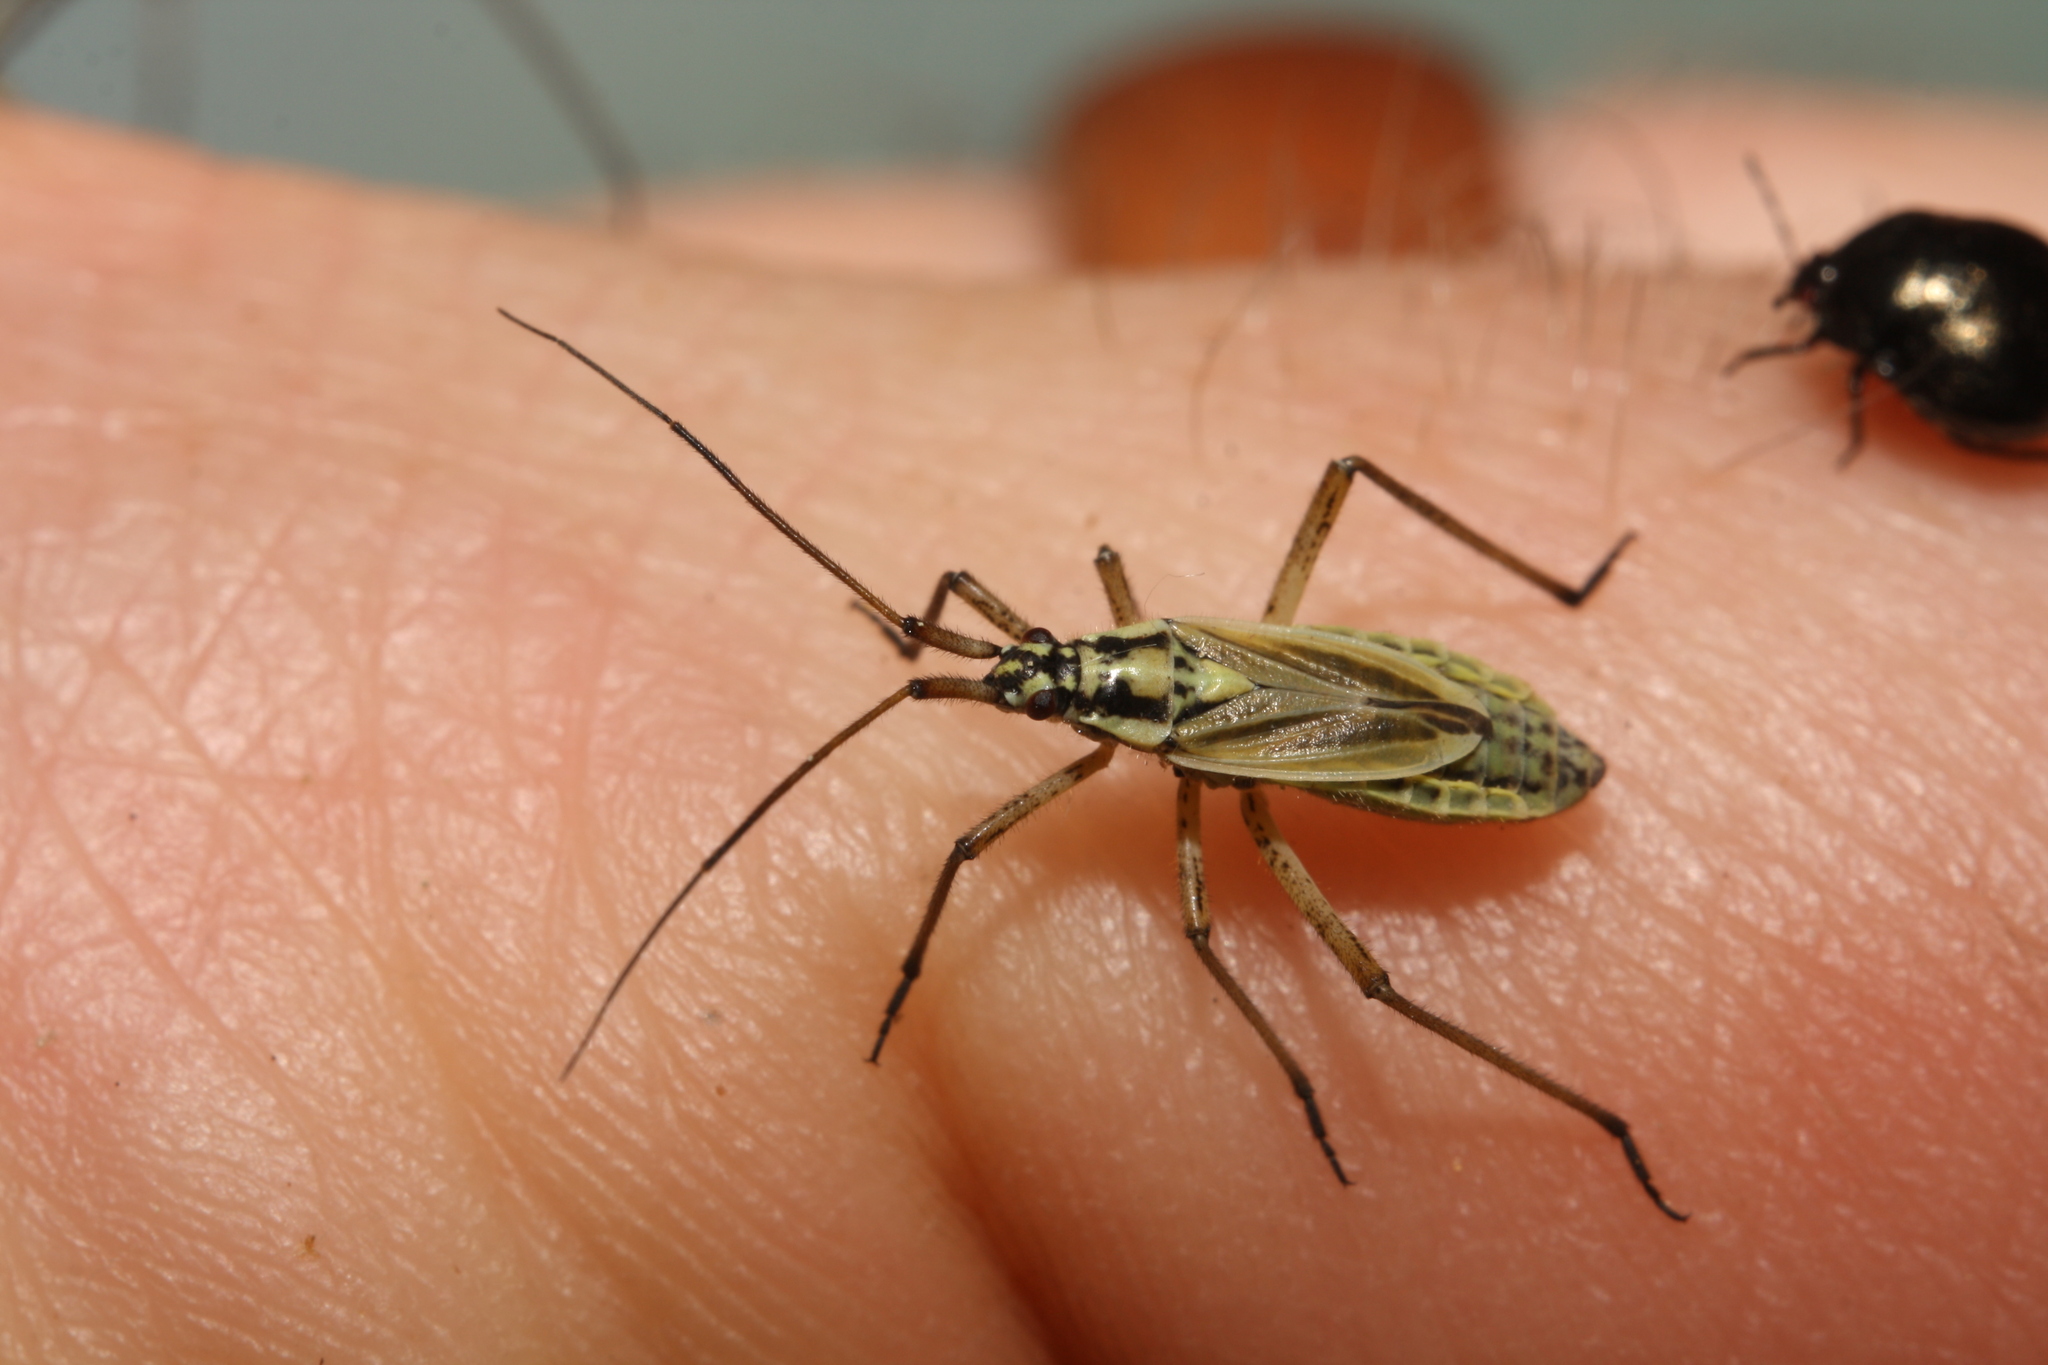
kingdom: Animalia
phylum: Arthropoda
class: Insecta
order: Hemiptera
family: Miridae
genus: Leptopterna
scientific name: Leptopterna dolabrata
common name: Meadow plant bug
